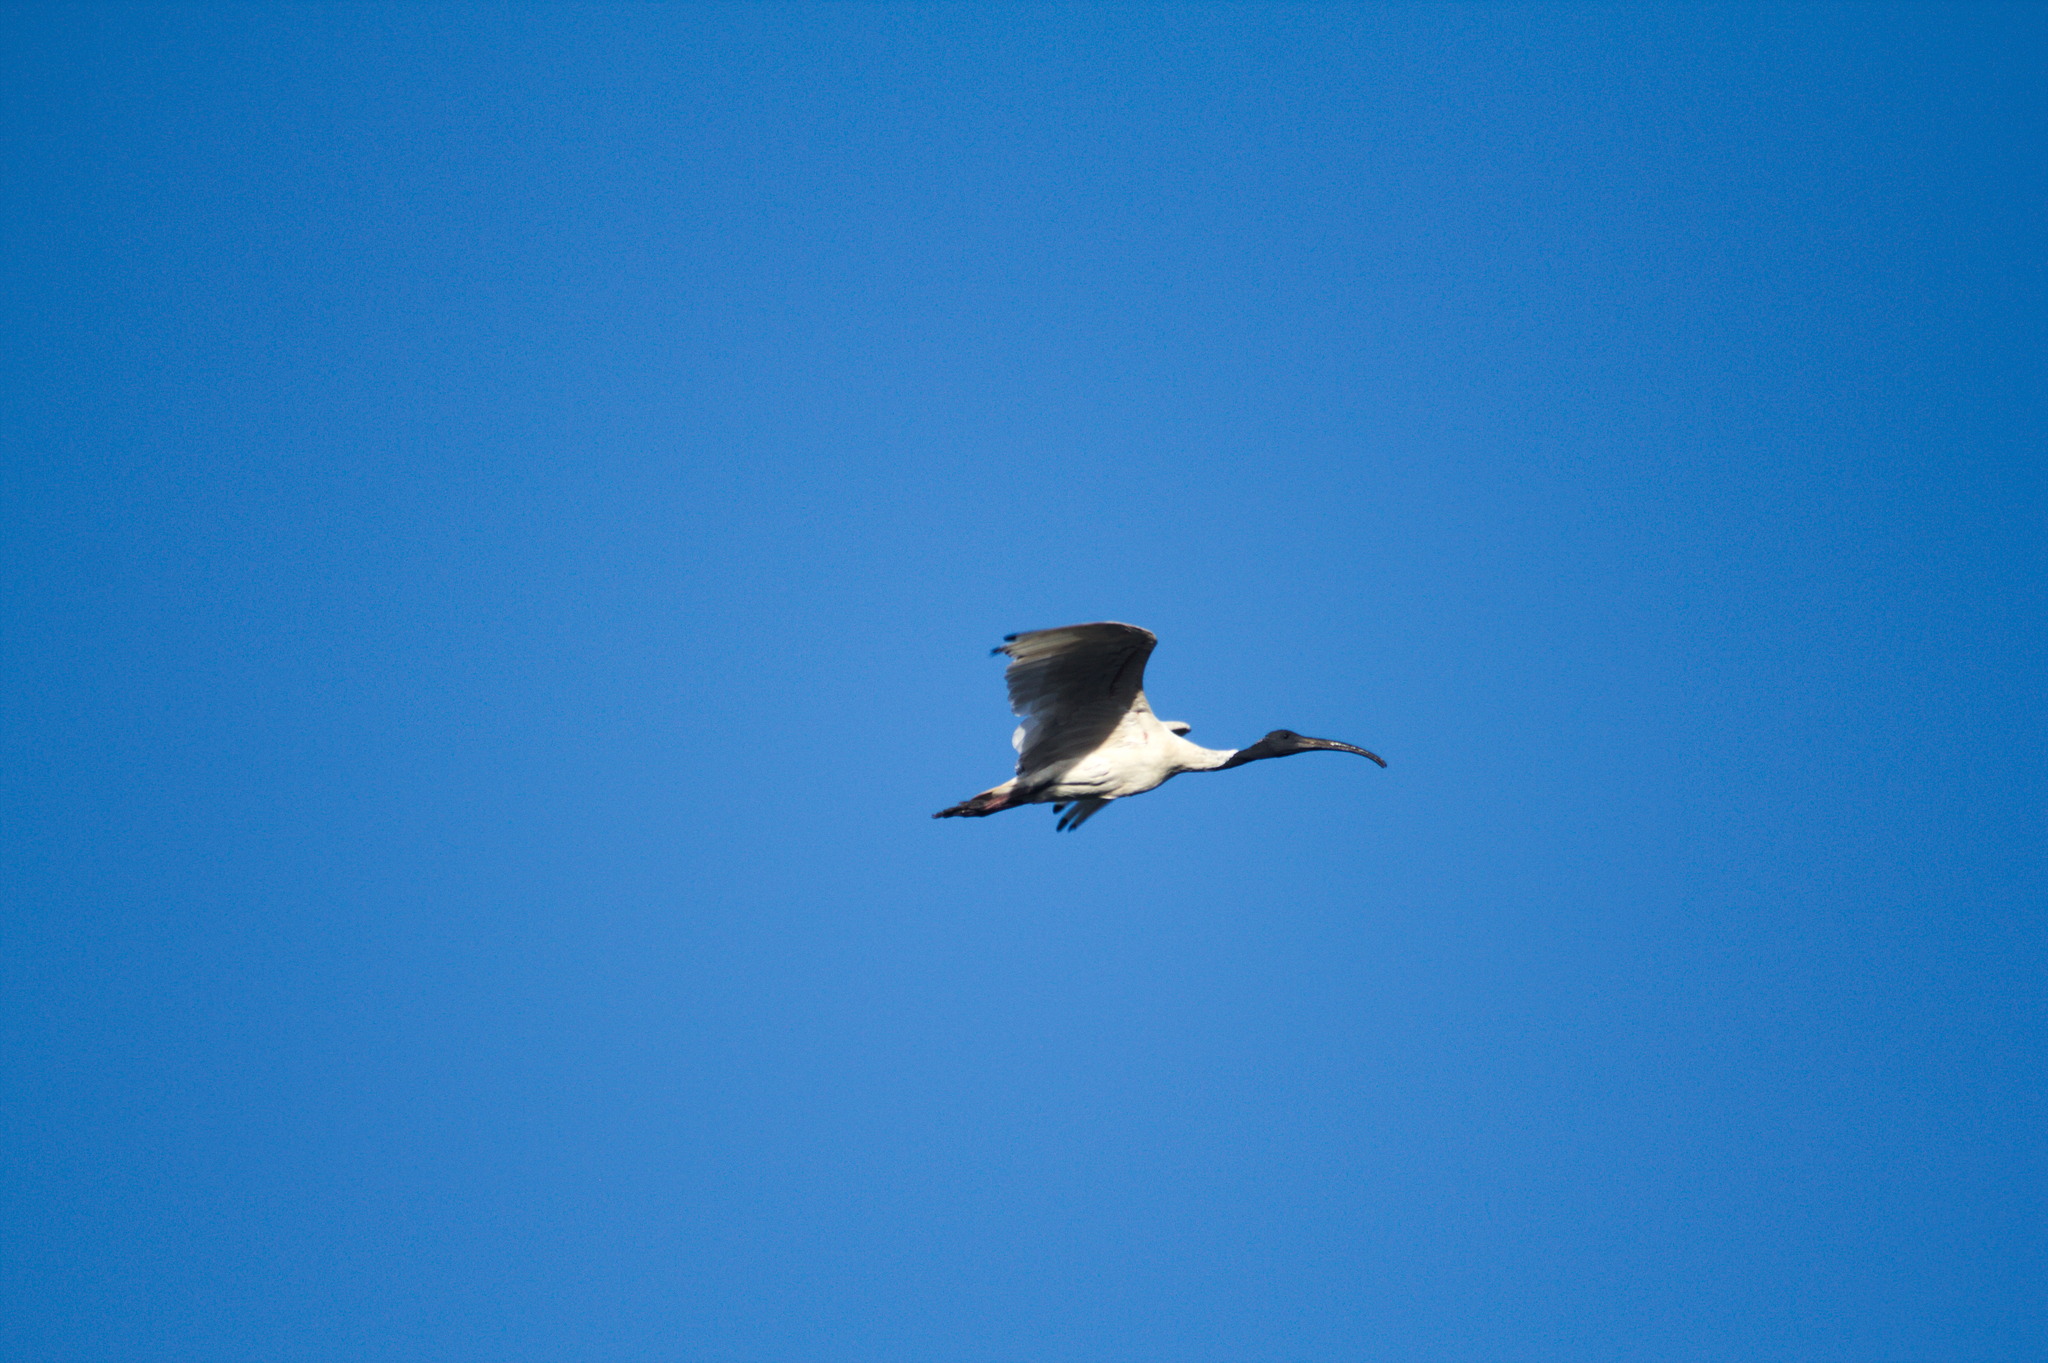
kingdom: Animalia
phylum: Chordata
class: Aves
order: Pelecaniformes
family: Threskiornithidae
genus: Threskiornis
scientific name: Threskiornis molucca
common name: Australian white ibis
